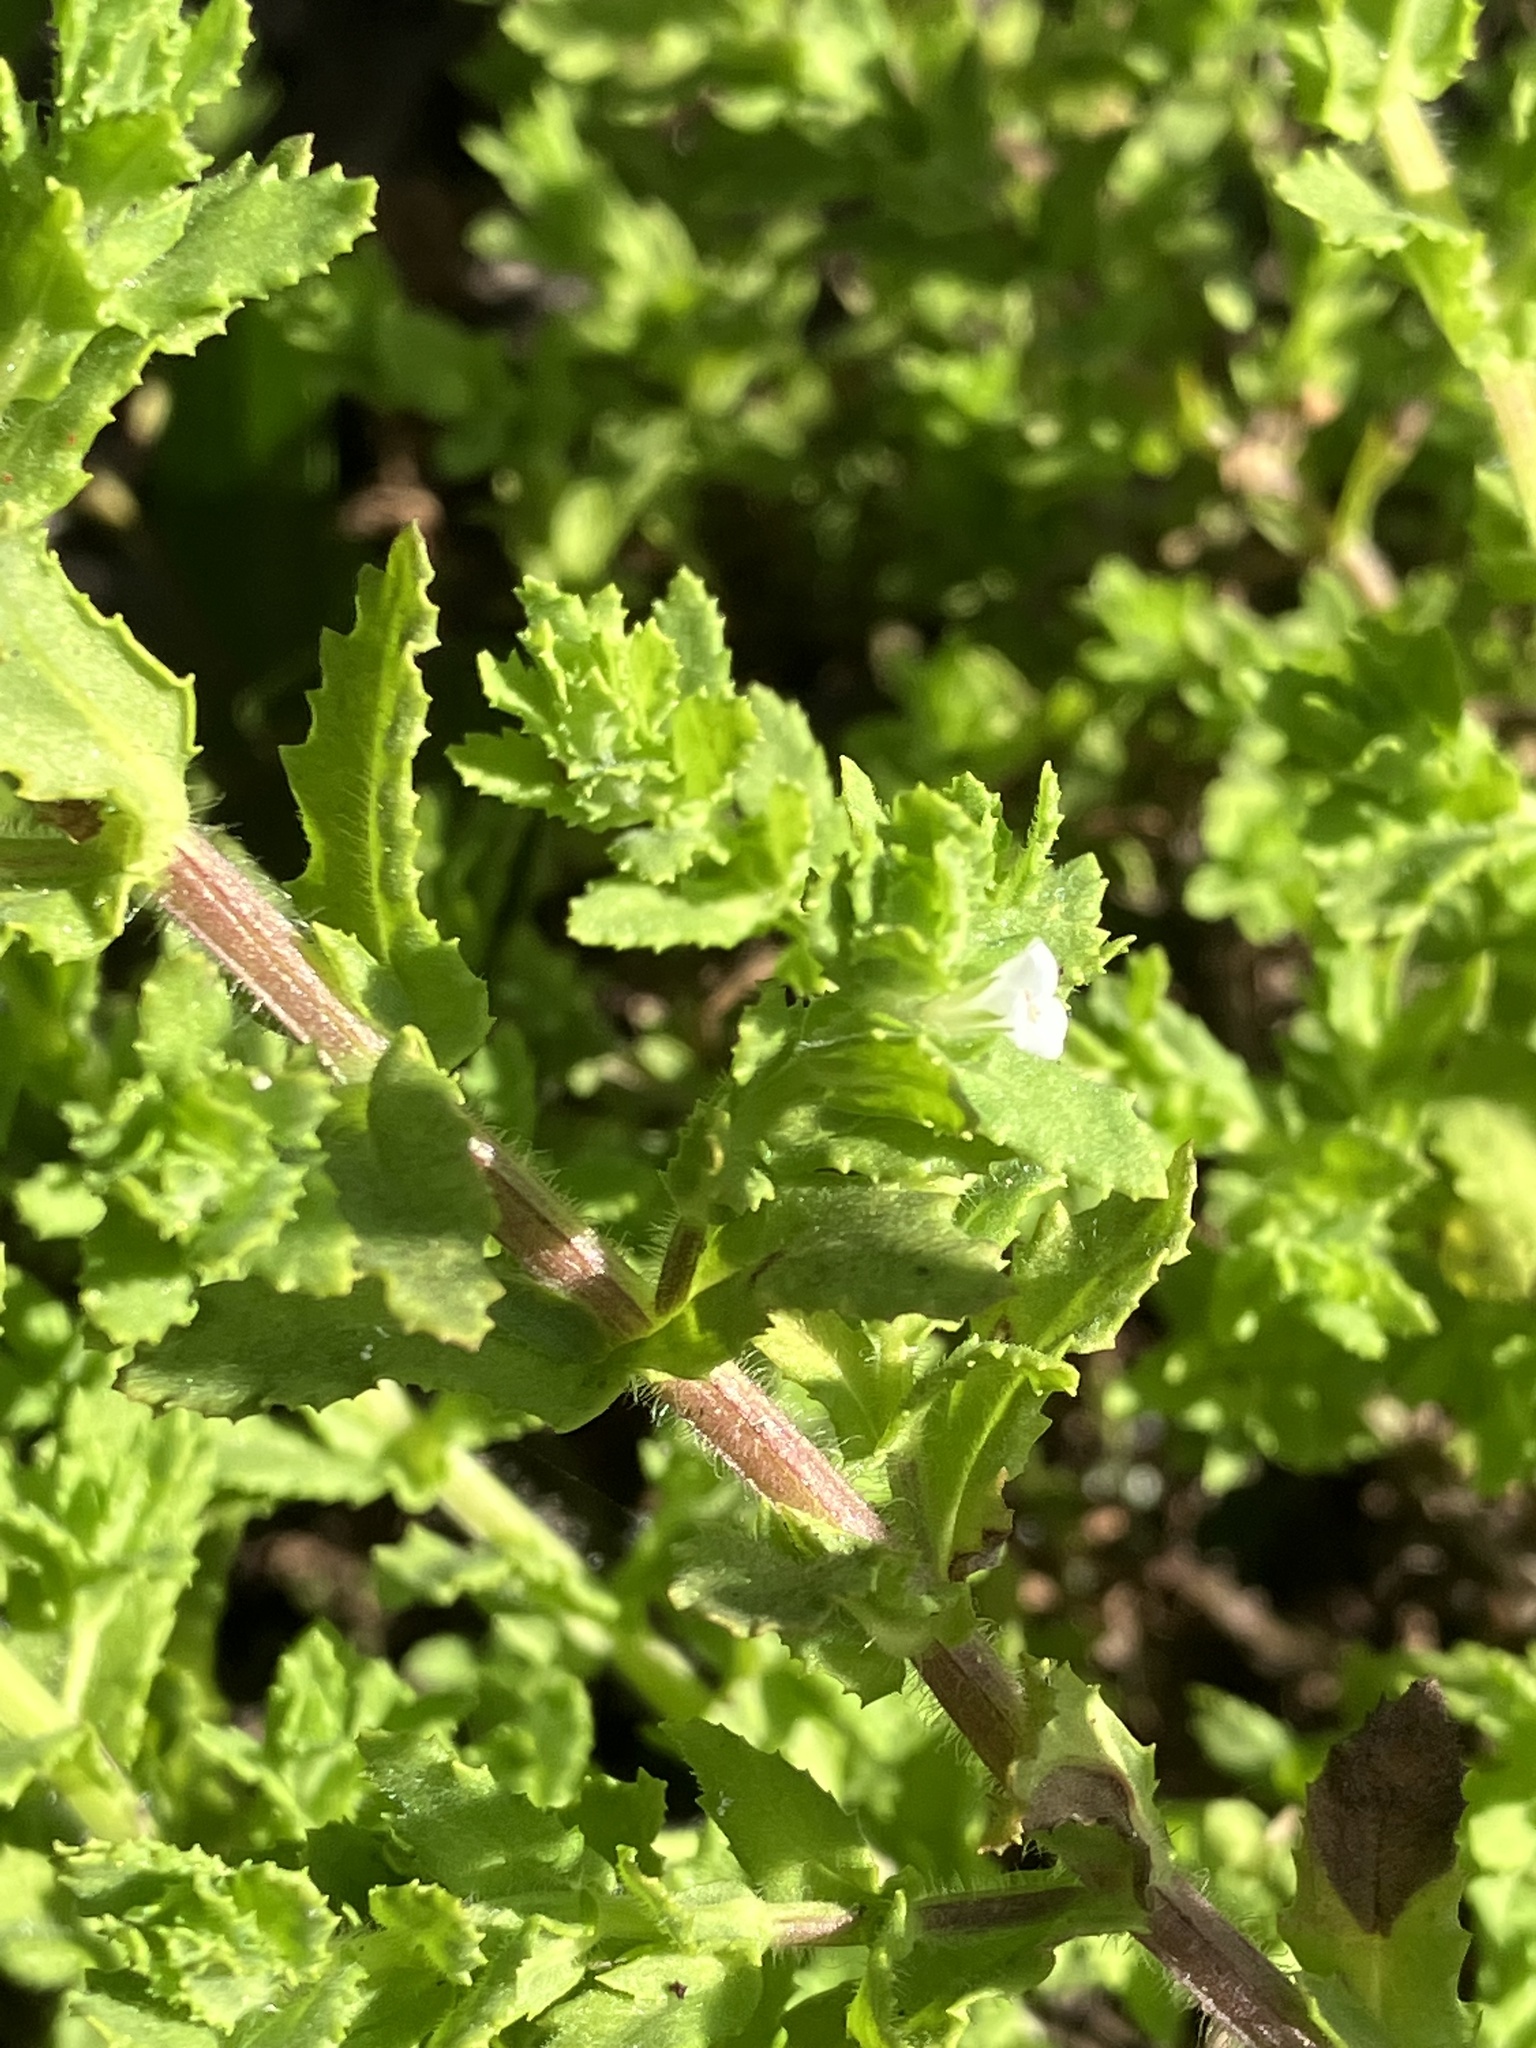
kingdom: Plantae
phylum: Tracheophyta
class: Magnoliopsida
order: Lamiales
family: Plantaginaceae
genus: Stemodia
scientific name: Stemodia maritima
